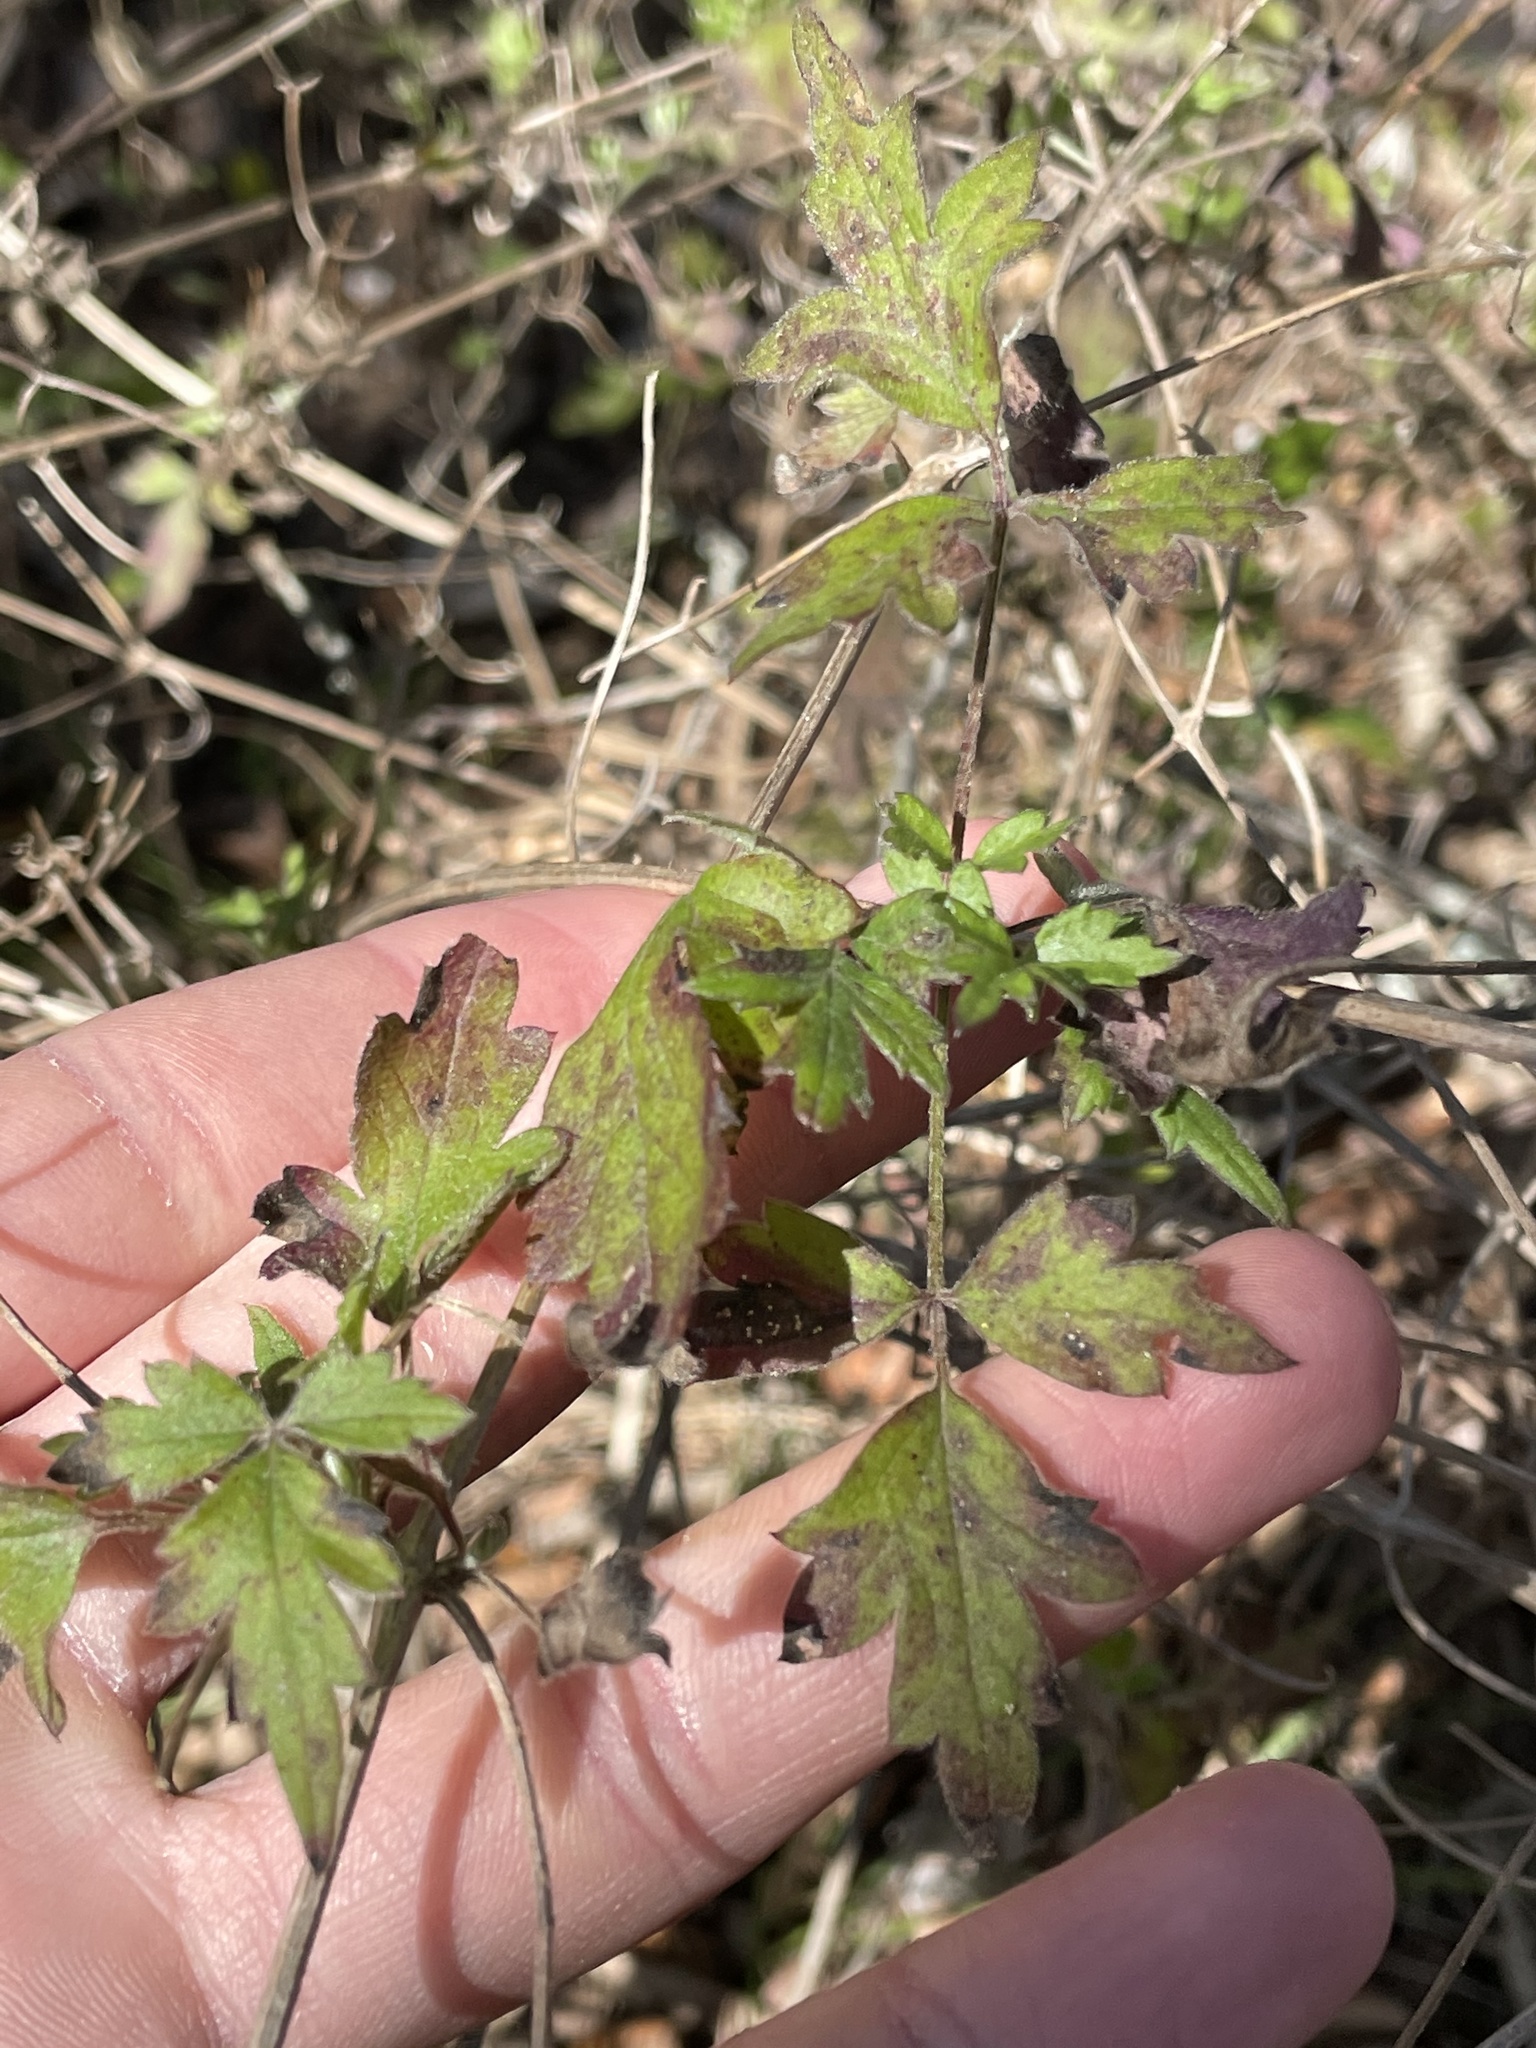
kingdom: Plantae
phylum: Tracheophyta
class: Magnoliopsida
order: Ranunculales
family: Ranunculaceae
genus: Clematis
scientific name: Clematis drummondii
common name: Texas virgin's bower
